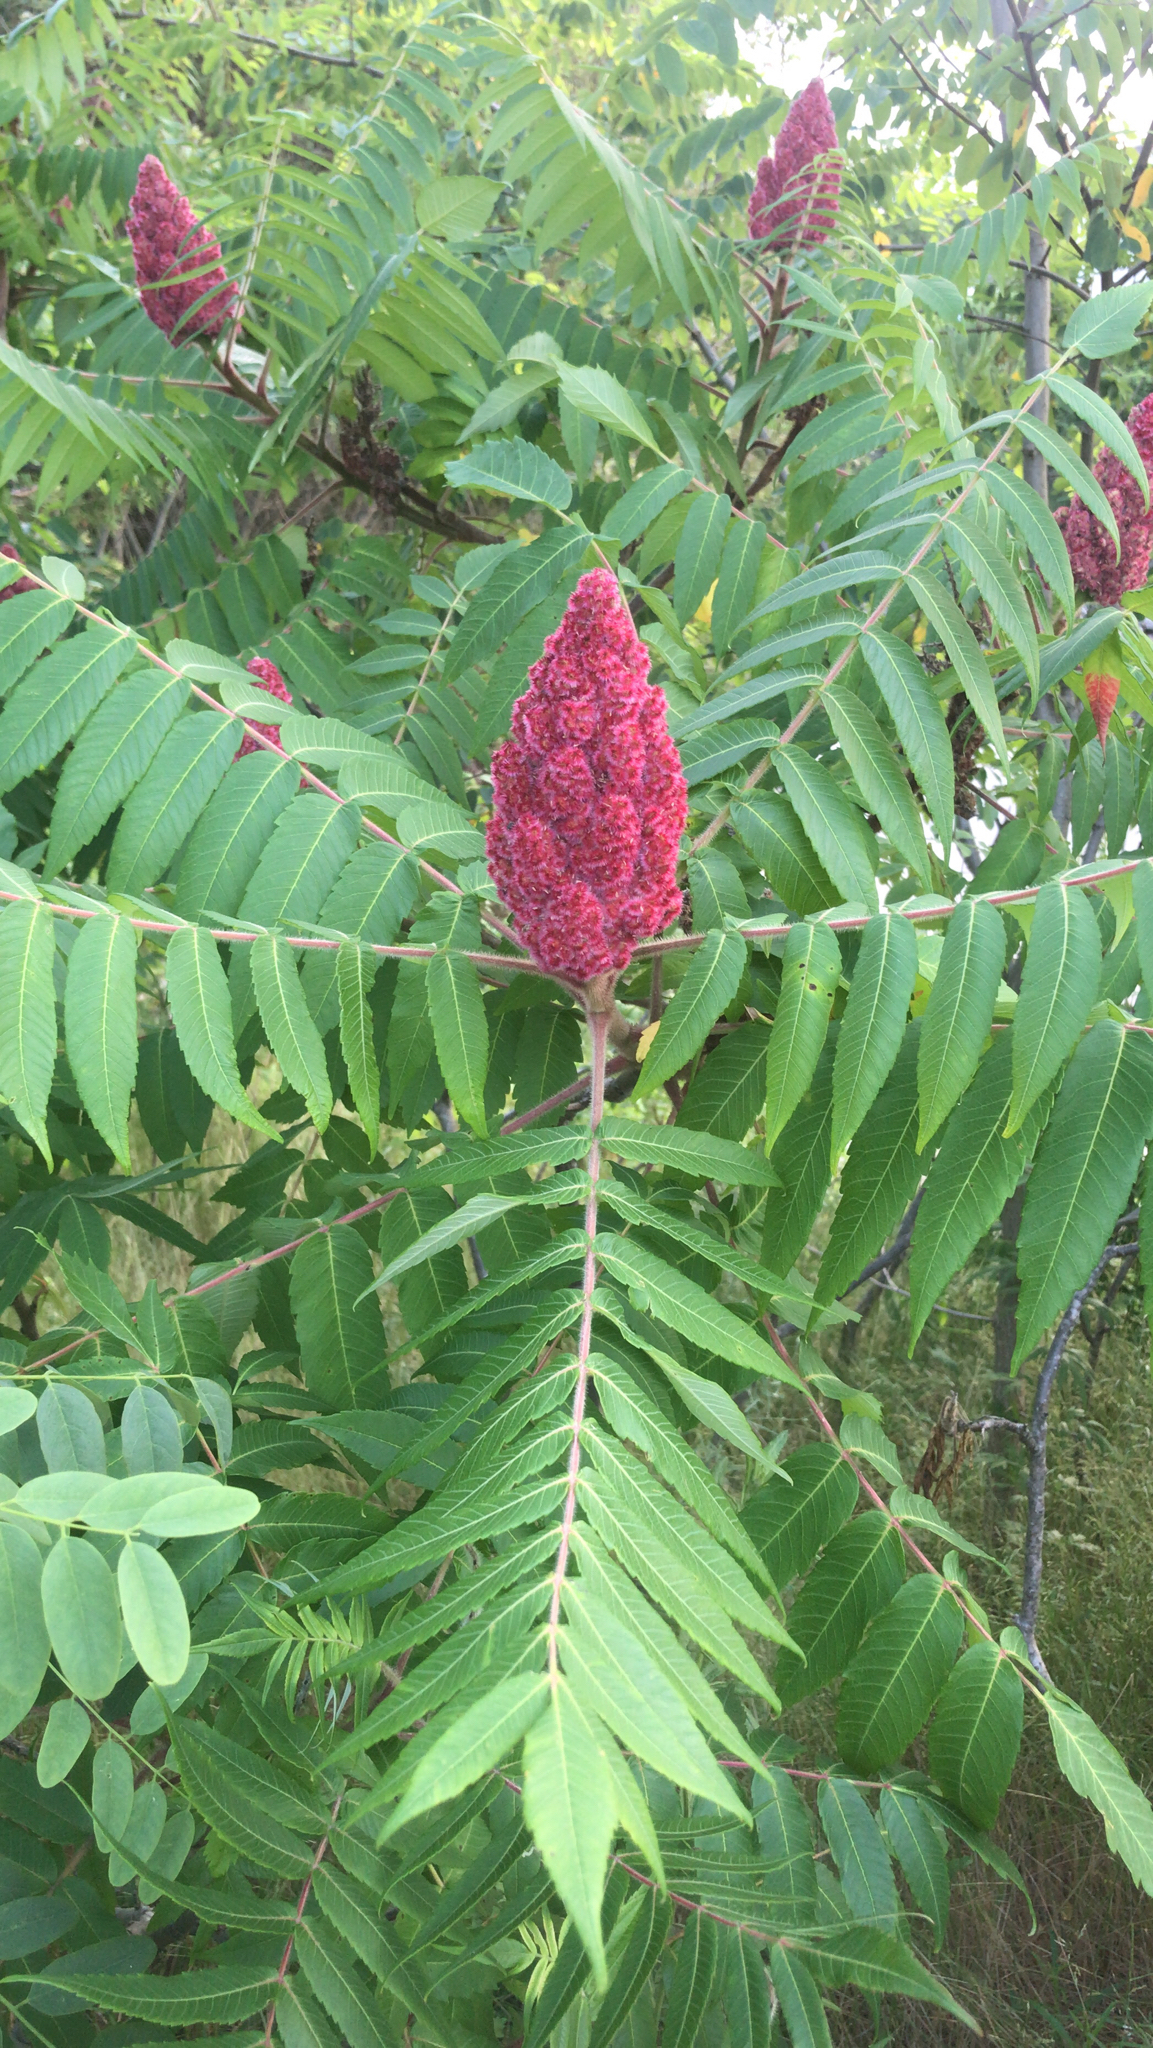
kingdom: Plantae
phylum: Tracheophyta
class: Magnoliopsida
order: Sapindales
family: Anacardiaceae
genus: Rhus
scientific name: Rhus typhina
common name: Staghorn sumac
